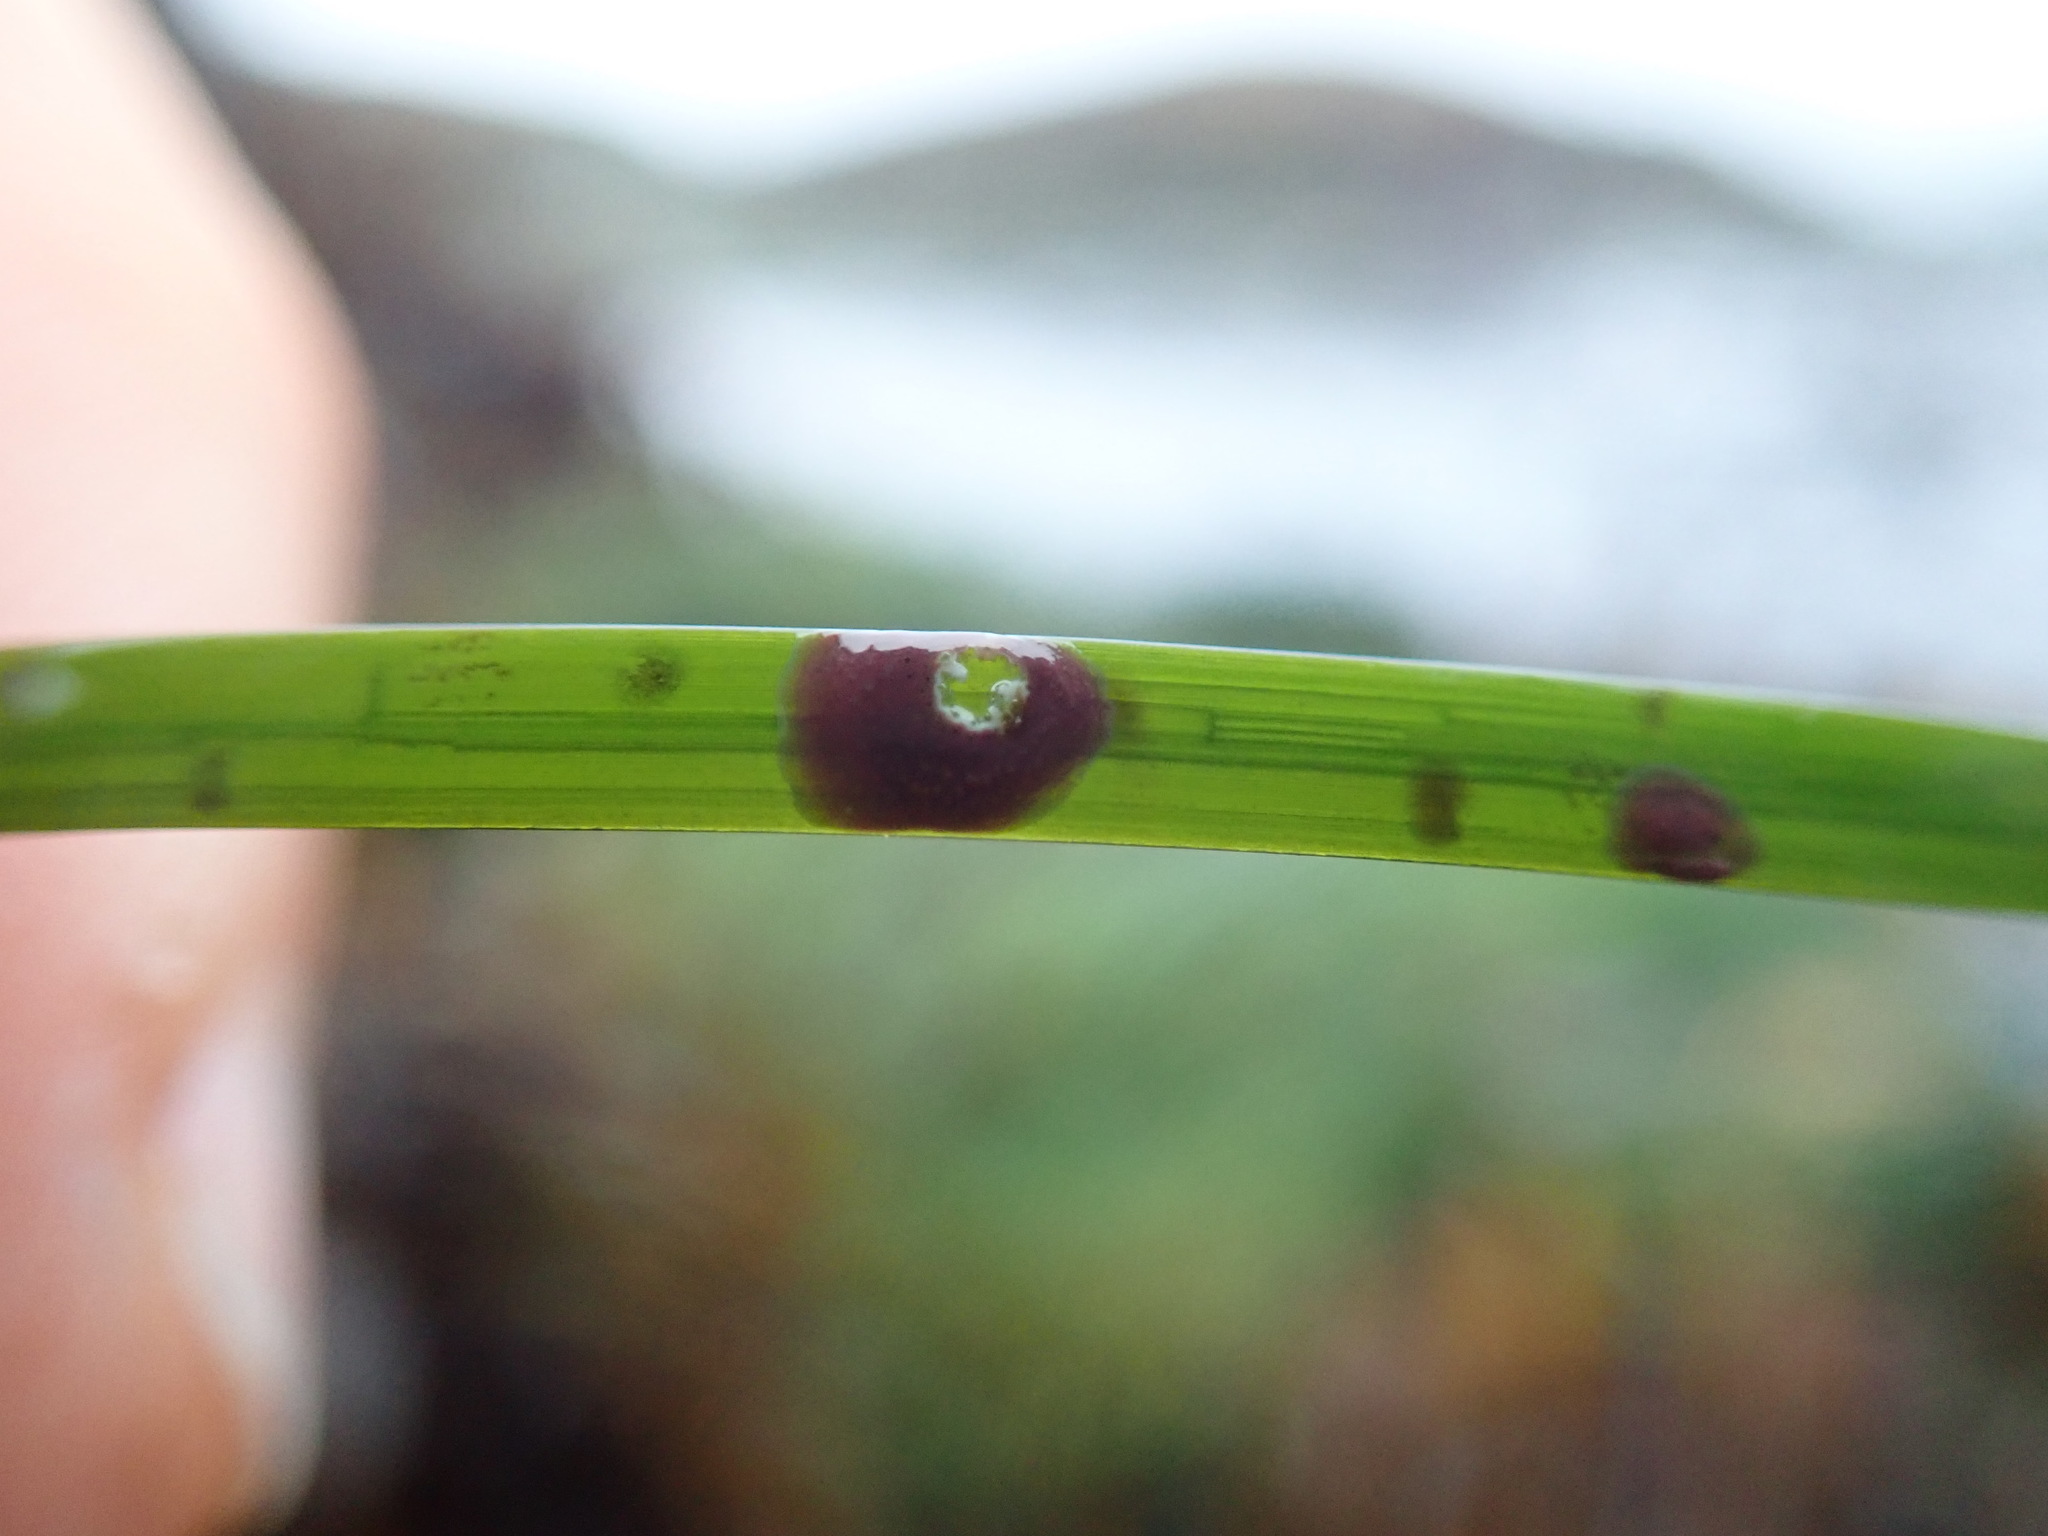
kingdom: Plantae
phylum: Rhodophyta
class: Florideophyceae
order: Corallinales
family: Hapalidiaceae
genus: Melobesia
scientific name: Melobesia mediocris
